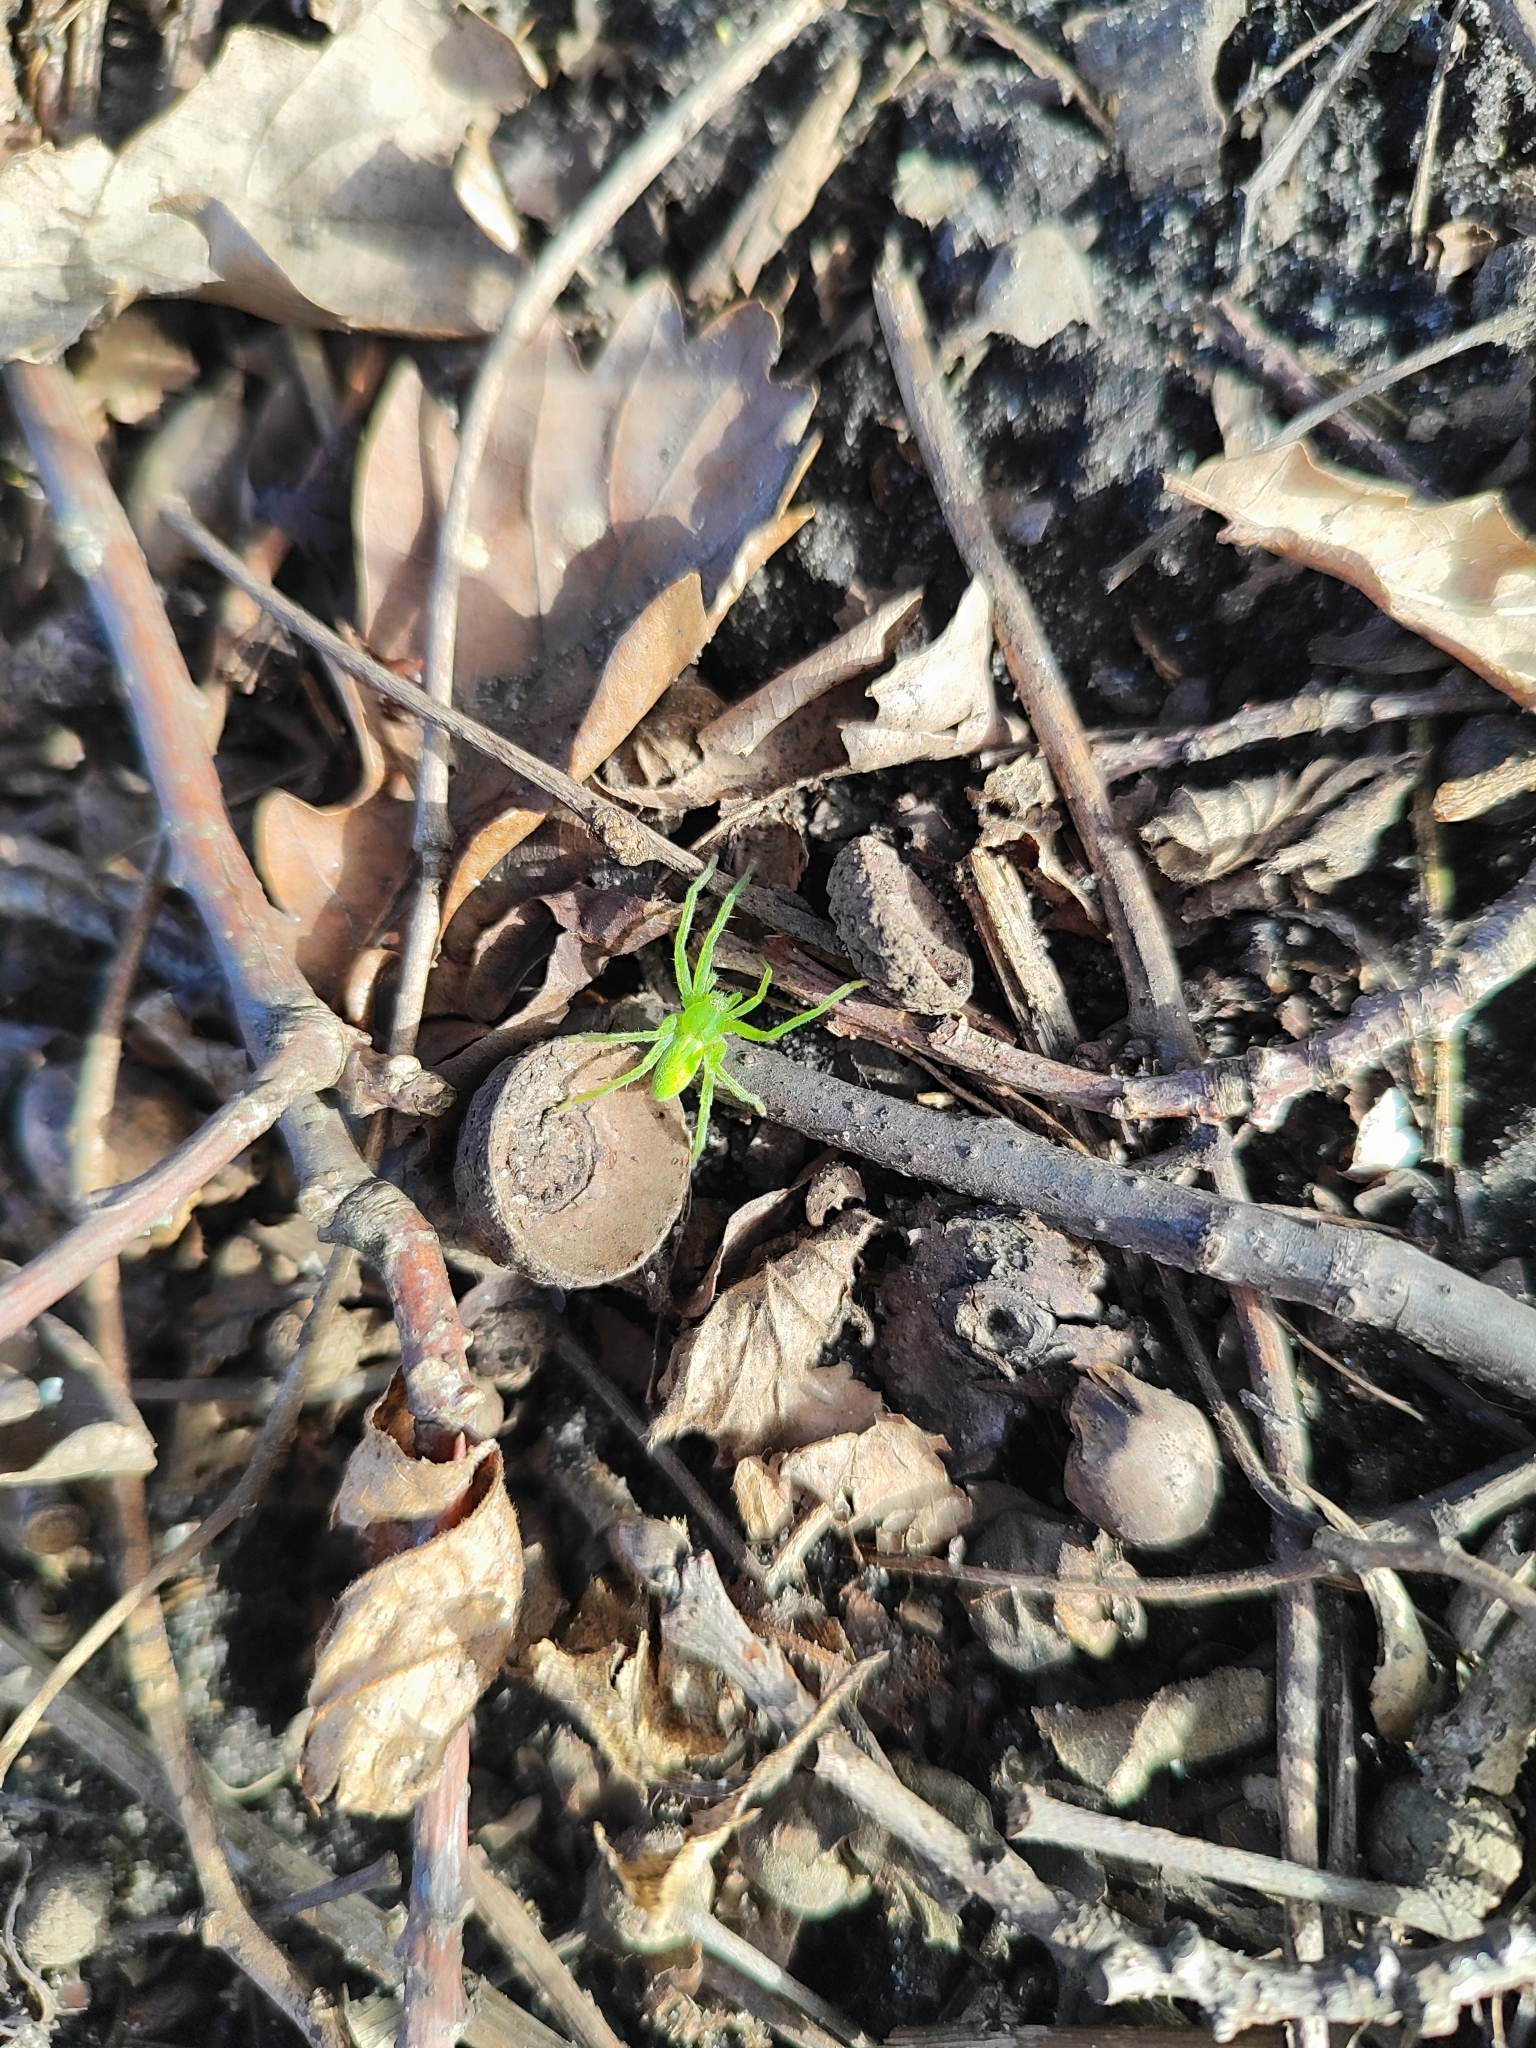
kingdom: Animalia
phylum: Arthropoda
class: Arachnida
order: Araneae
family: Sparassidae
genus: Micrommata
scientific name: Micrommata virescens
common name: Green spider
